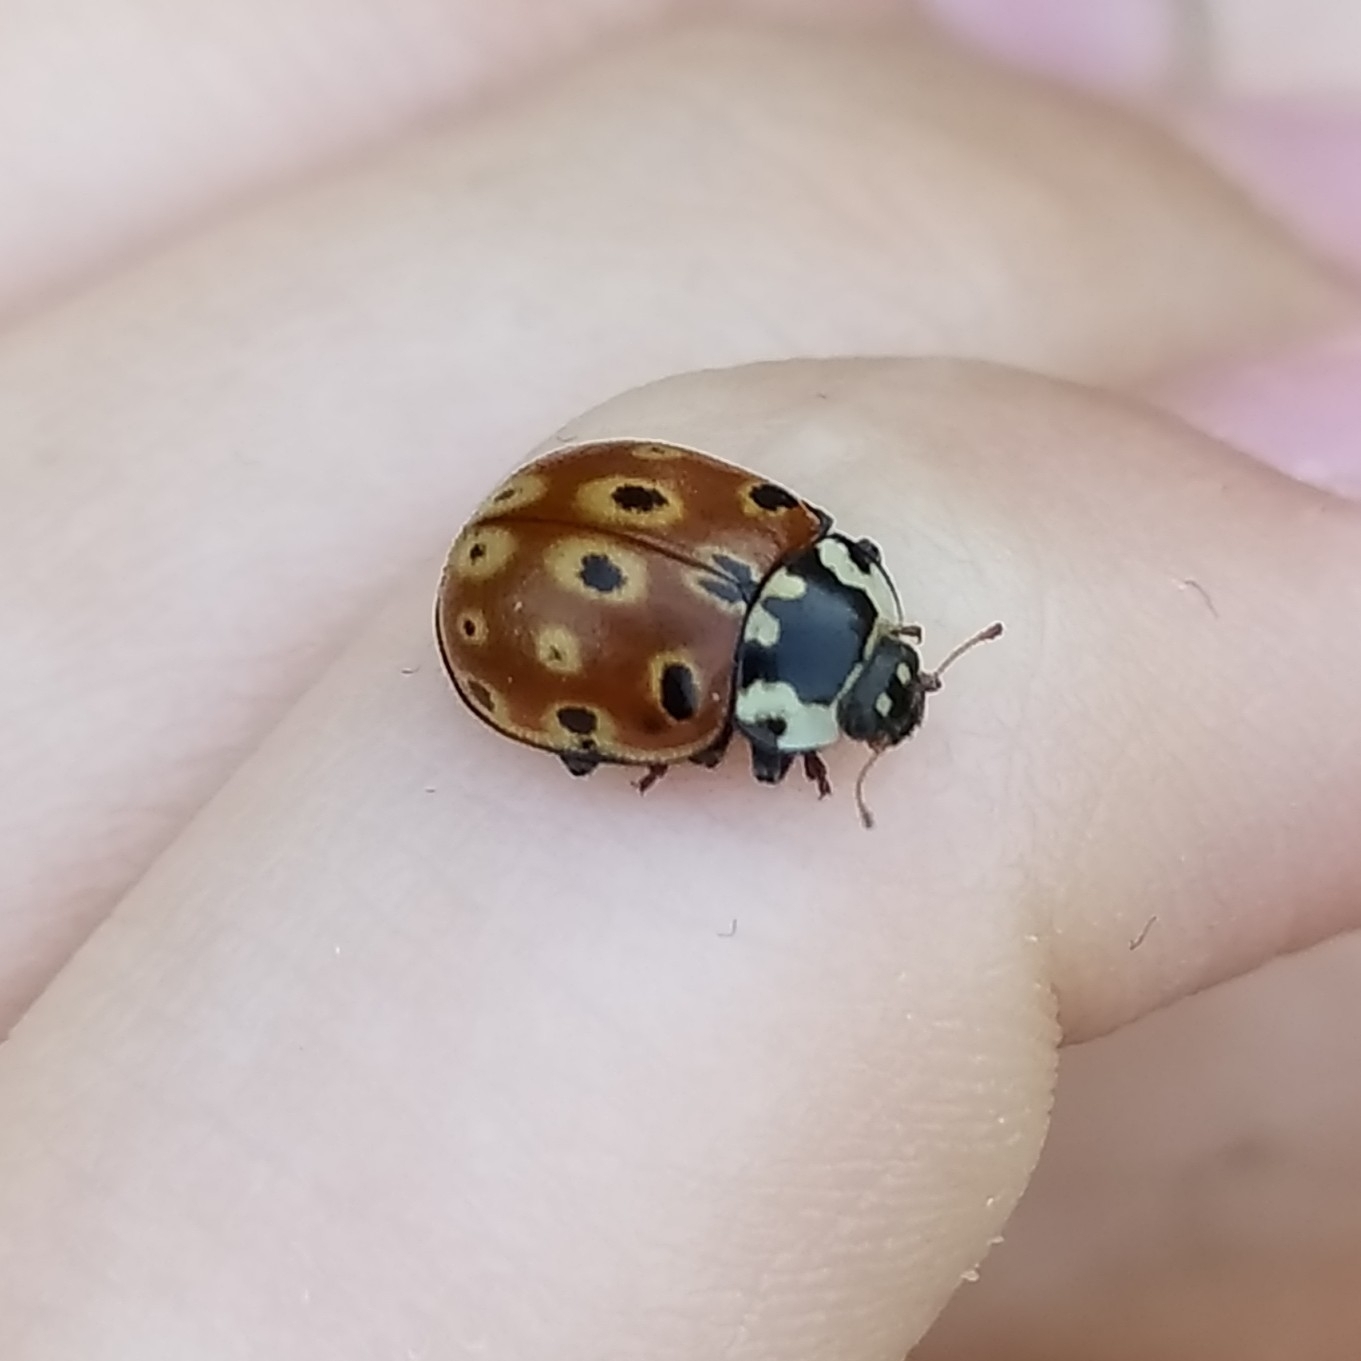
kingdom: Animalia
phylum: Arthropoda
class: Insecta
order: Coleoptera
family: Coccinellidae
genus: Anatis
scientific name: Anatis ocellata
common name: Eyed ladybird
